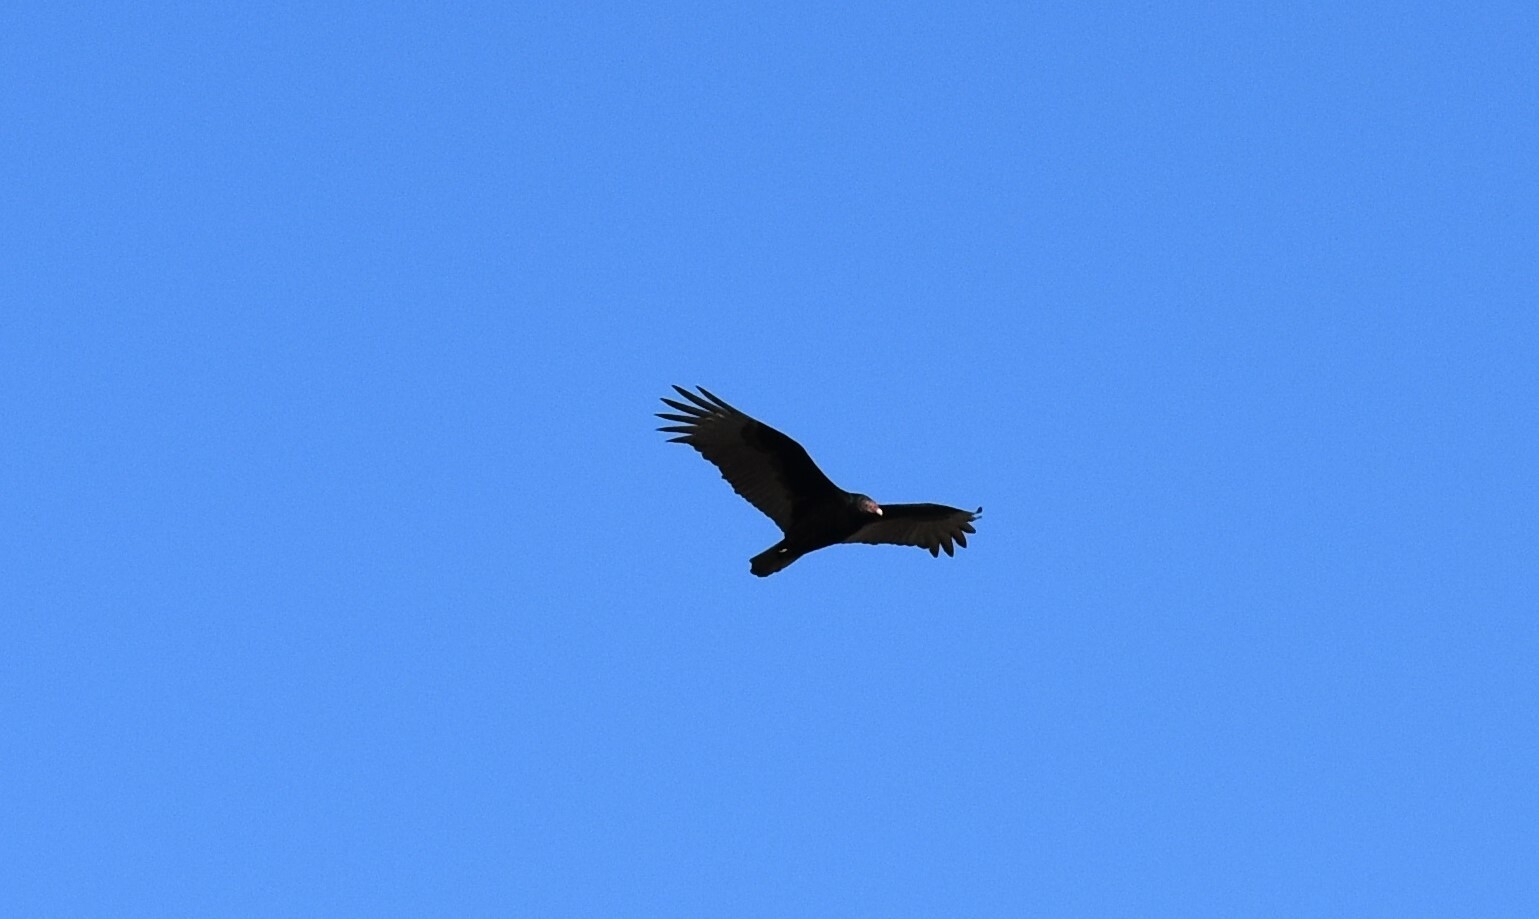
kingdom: Animalia
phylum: Chordata
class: Aves
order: Accipitriformes
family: Cathartidae
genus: Cathartes
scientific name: Cathartes aura
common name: Turkey vulture
